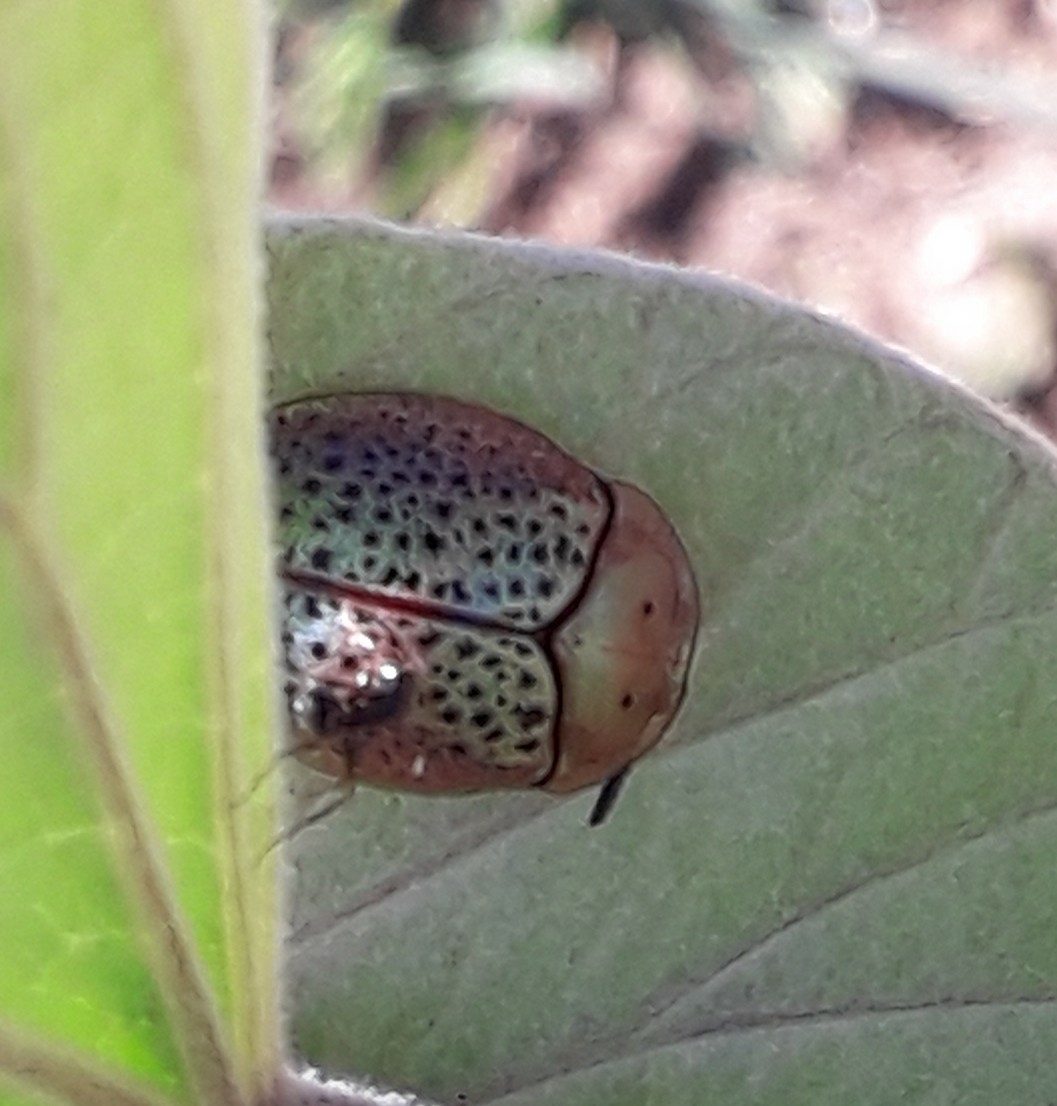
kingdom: Animalia
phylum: Arthropoda
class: Insecta
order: Coleoptera
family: Chrysomelidae
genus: Chelymorpha
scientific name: Chelymorpha varians
